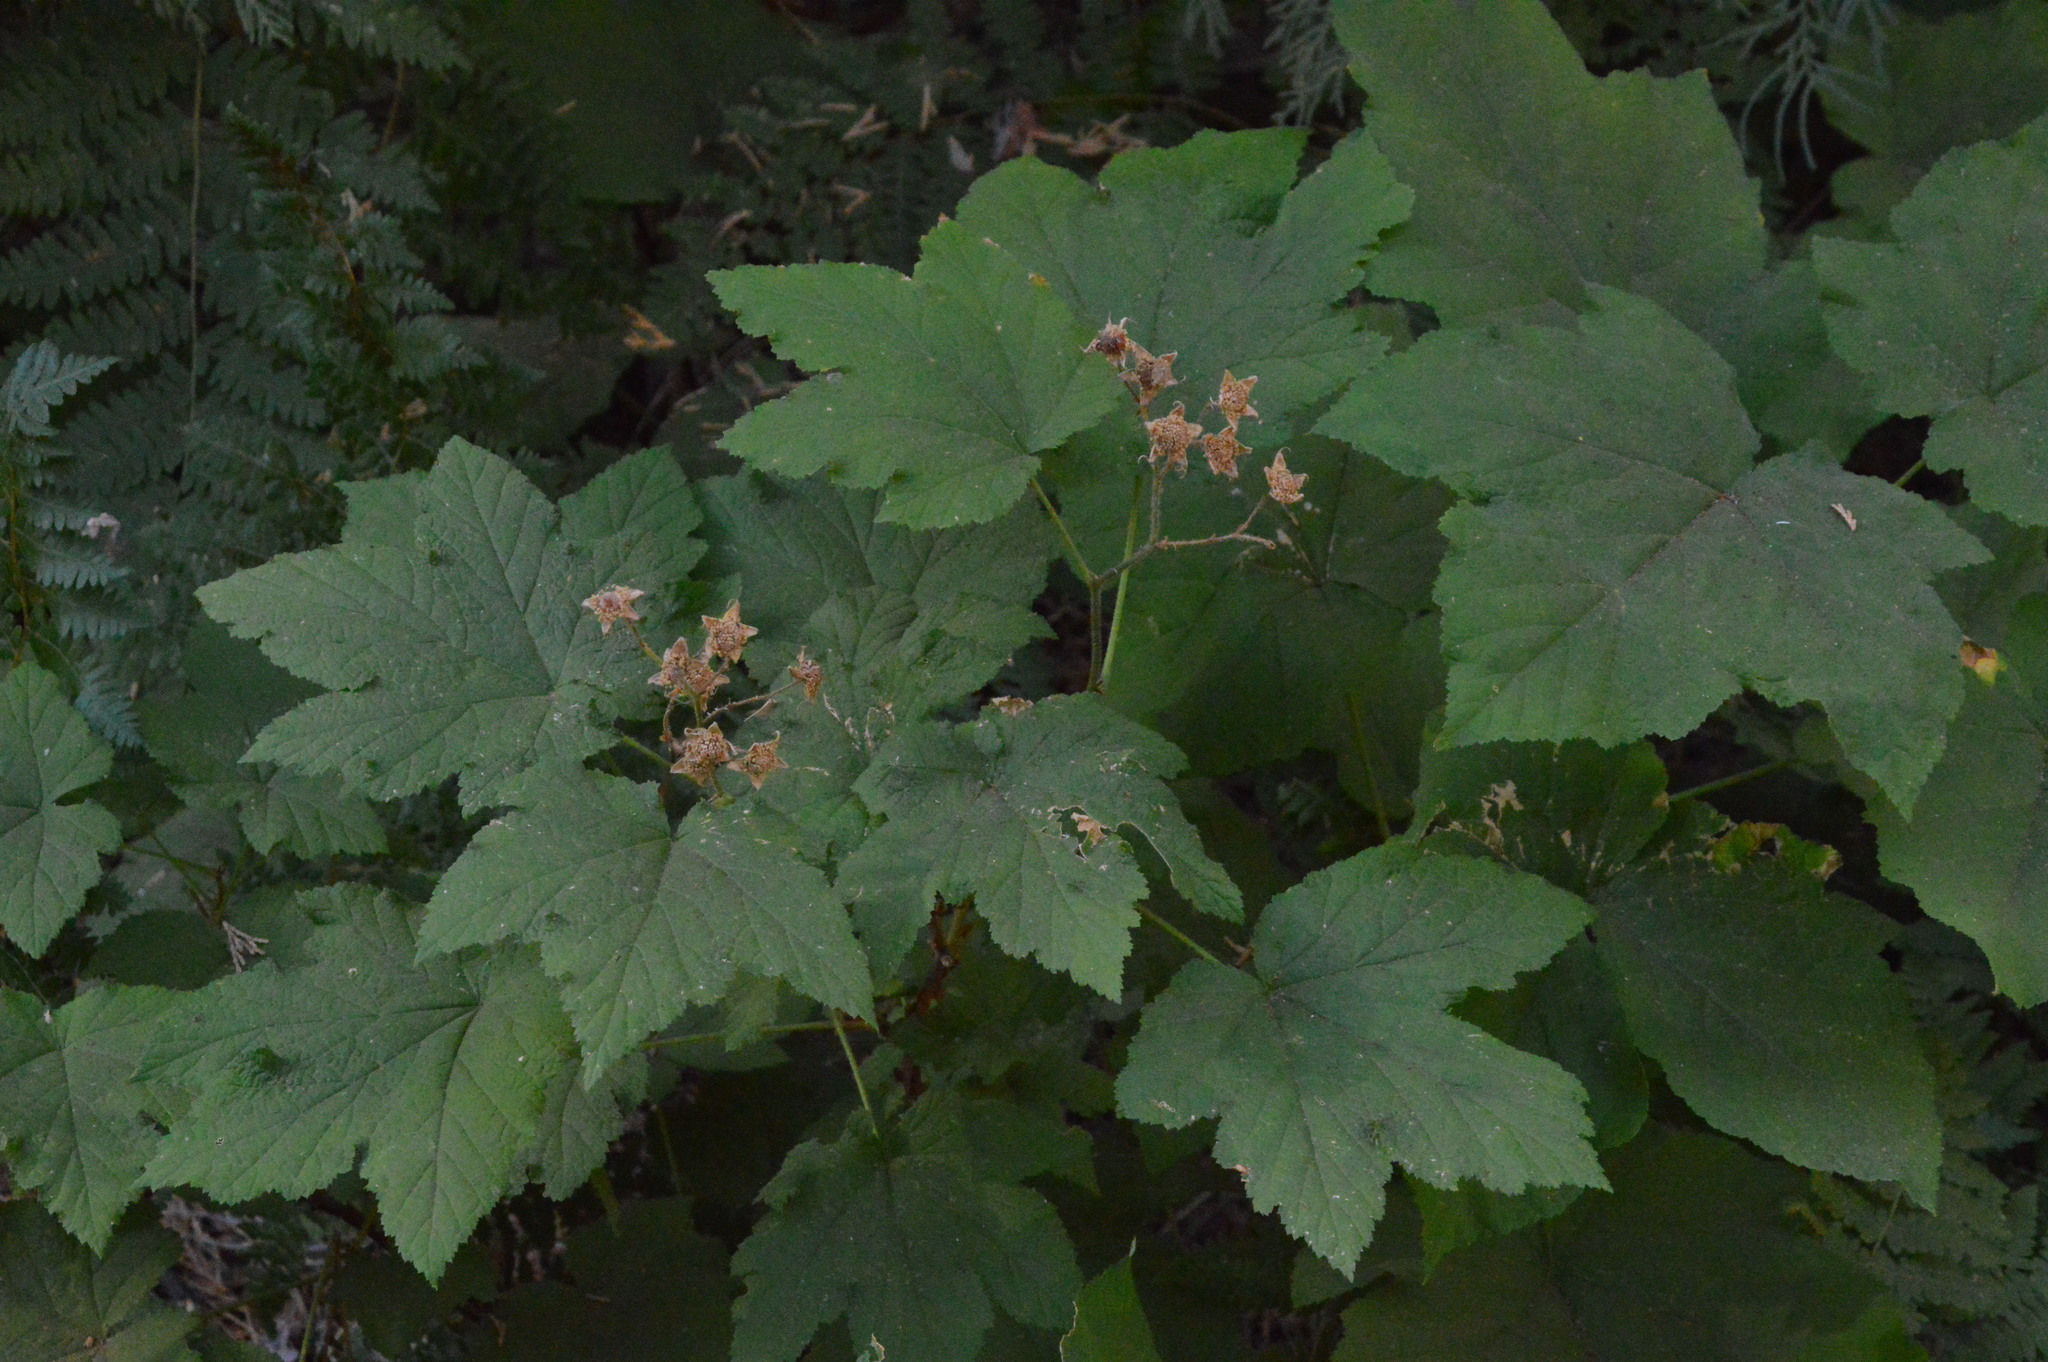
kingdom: Plantae
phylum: Tracheophyta
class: Magnoliopsida
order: Rosales
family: Rosaceae
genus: Rubus
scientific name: Rubus parviflorus
